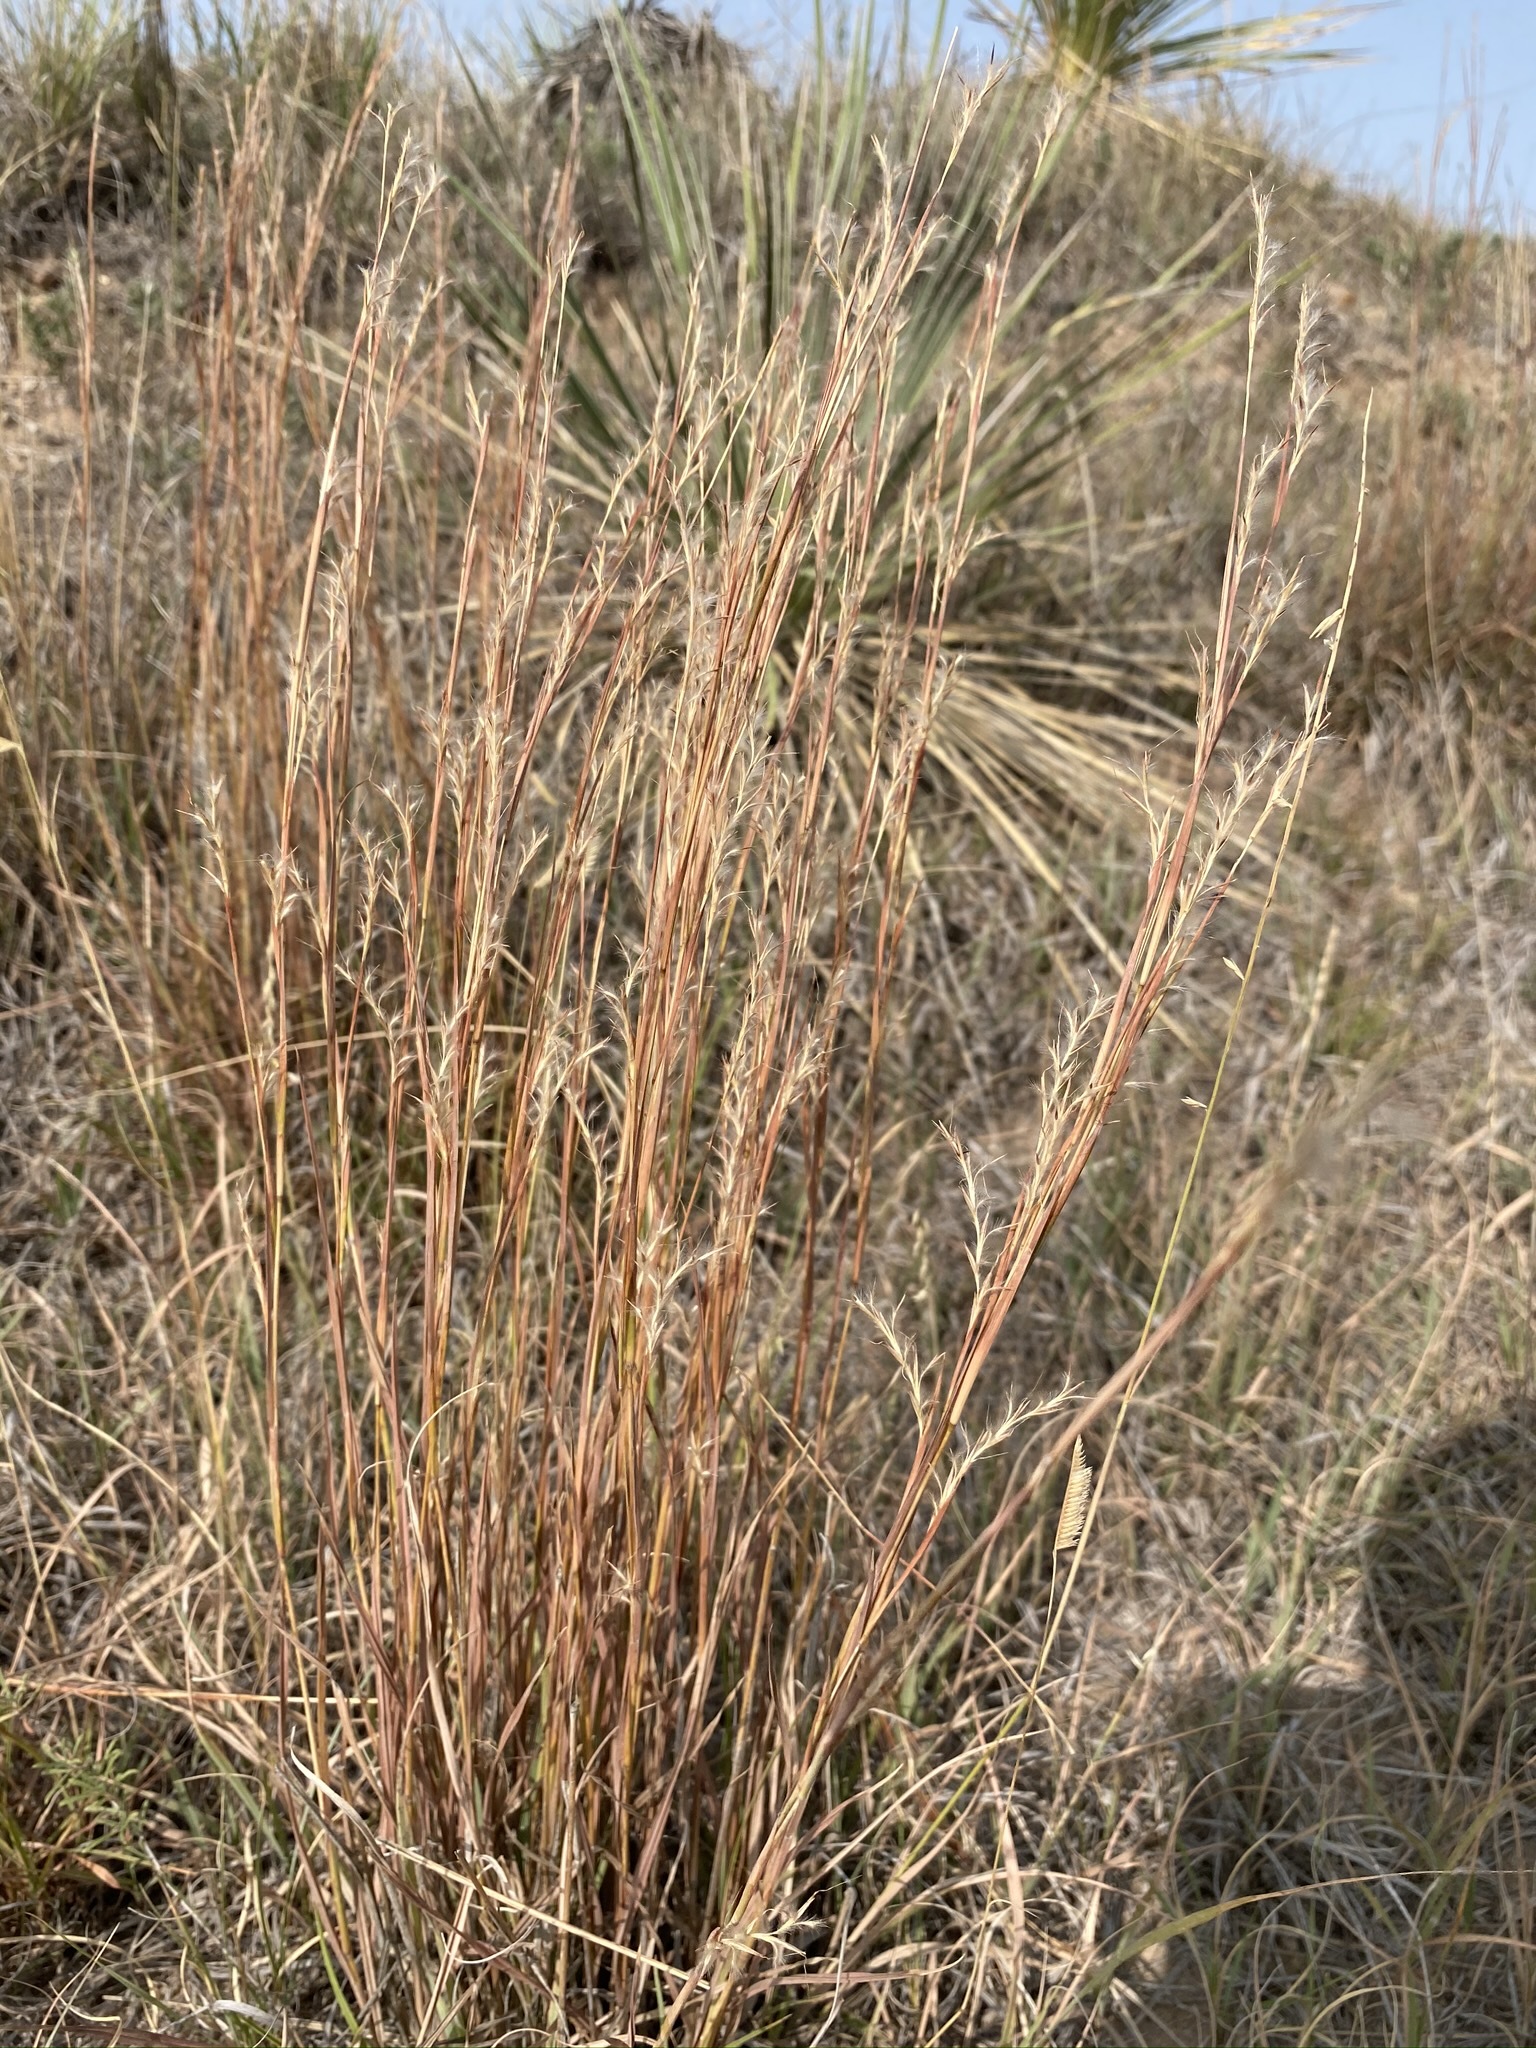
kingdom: Plantae
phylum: Tracheophyta
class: Liliopsida
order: Poales
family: Poaceae
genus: Schizachyrium
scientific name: Schizachyrium scoparium
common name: Little bluestem
